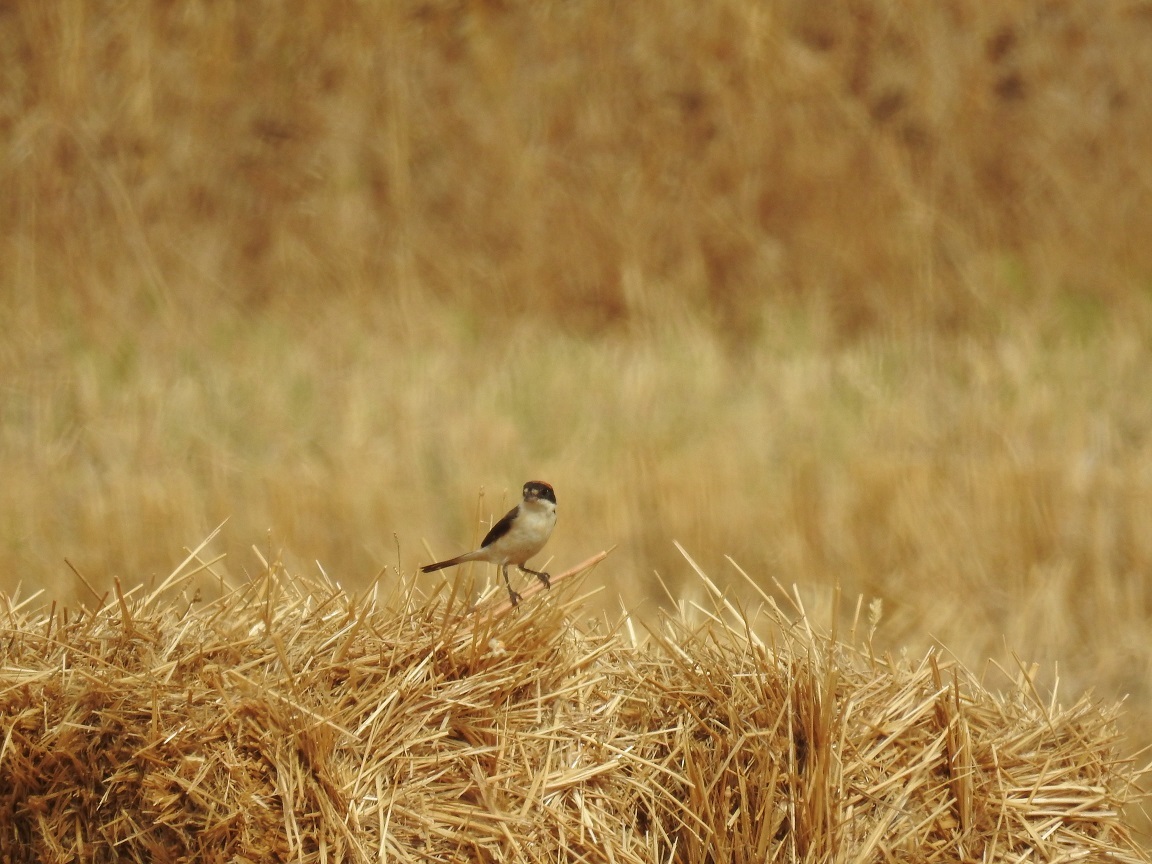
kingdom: Animalia
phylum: Chordata
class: Aves
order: Passeriformes
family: Laniidae
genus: Lanius
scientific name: Lanius senator
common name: Woodchat shrike
